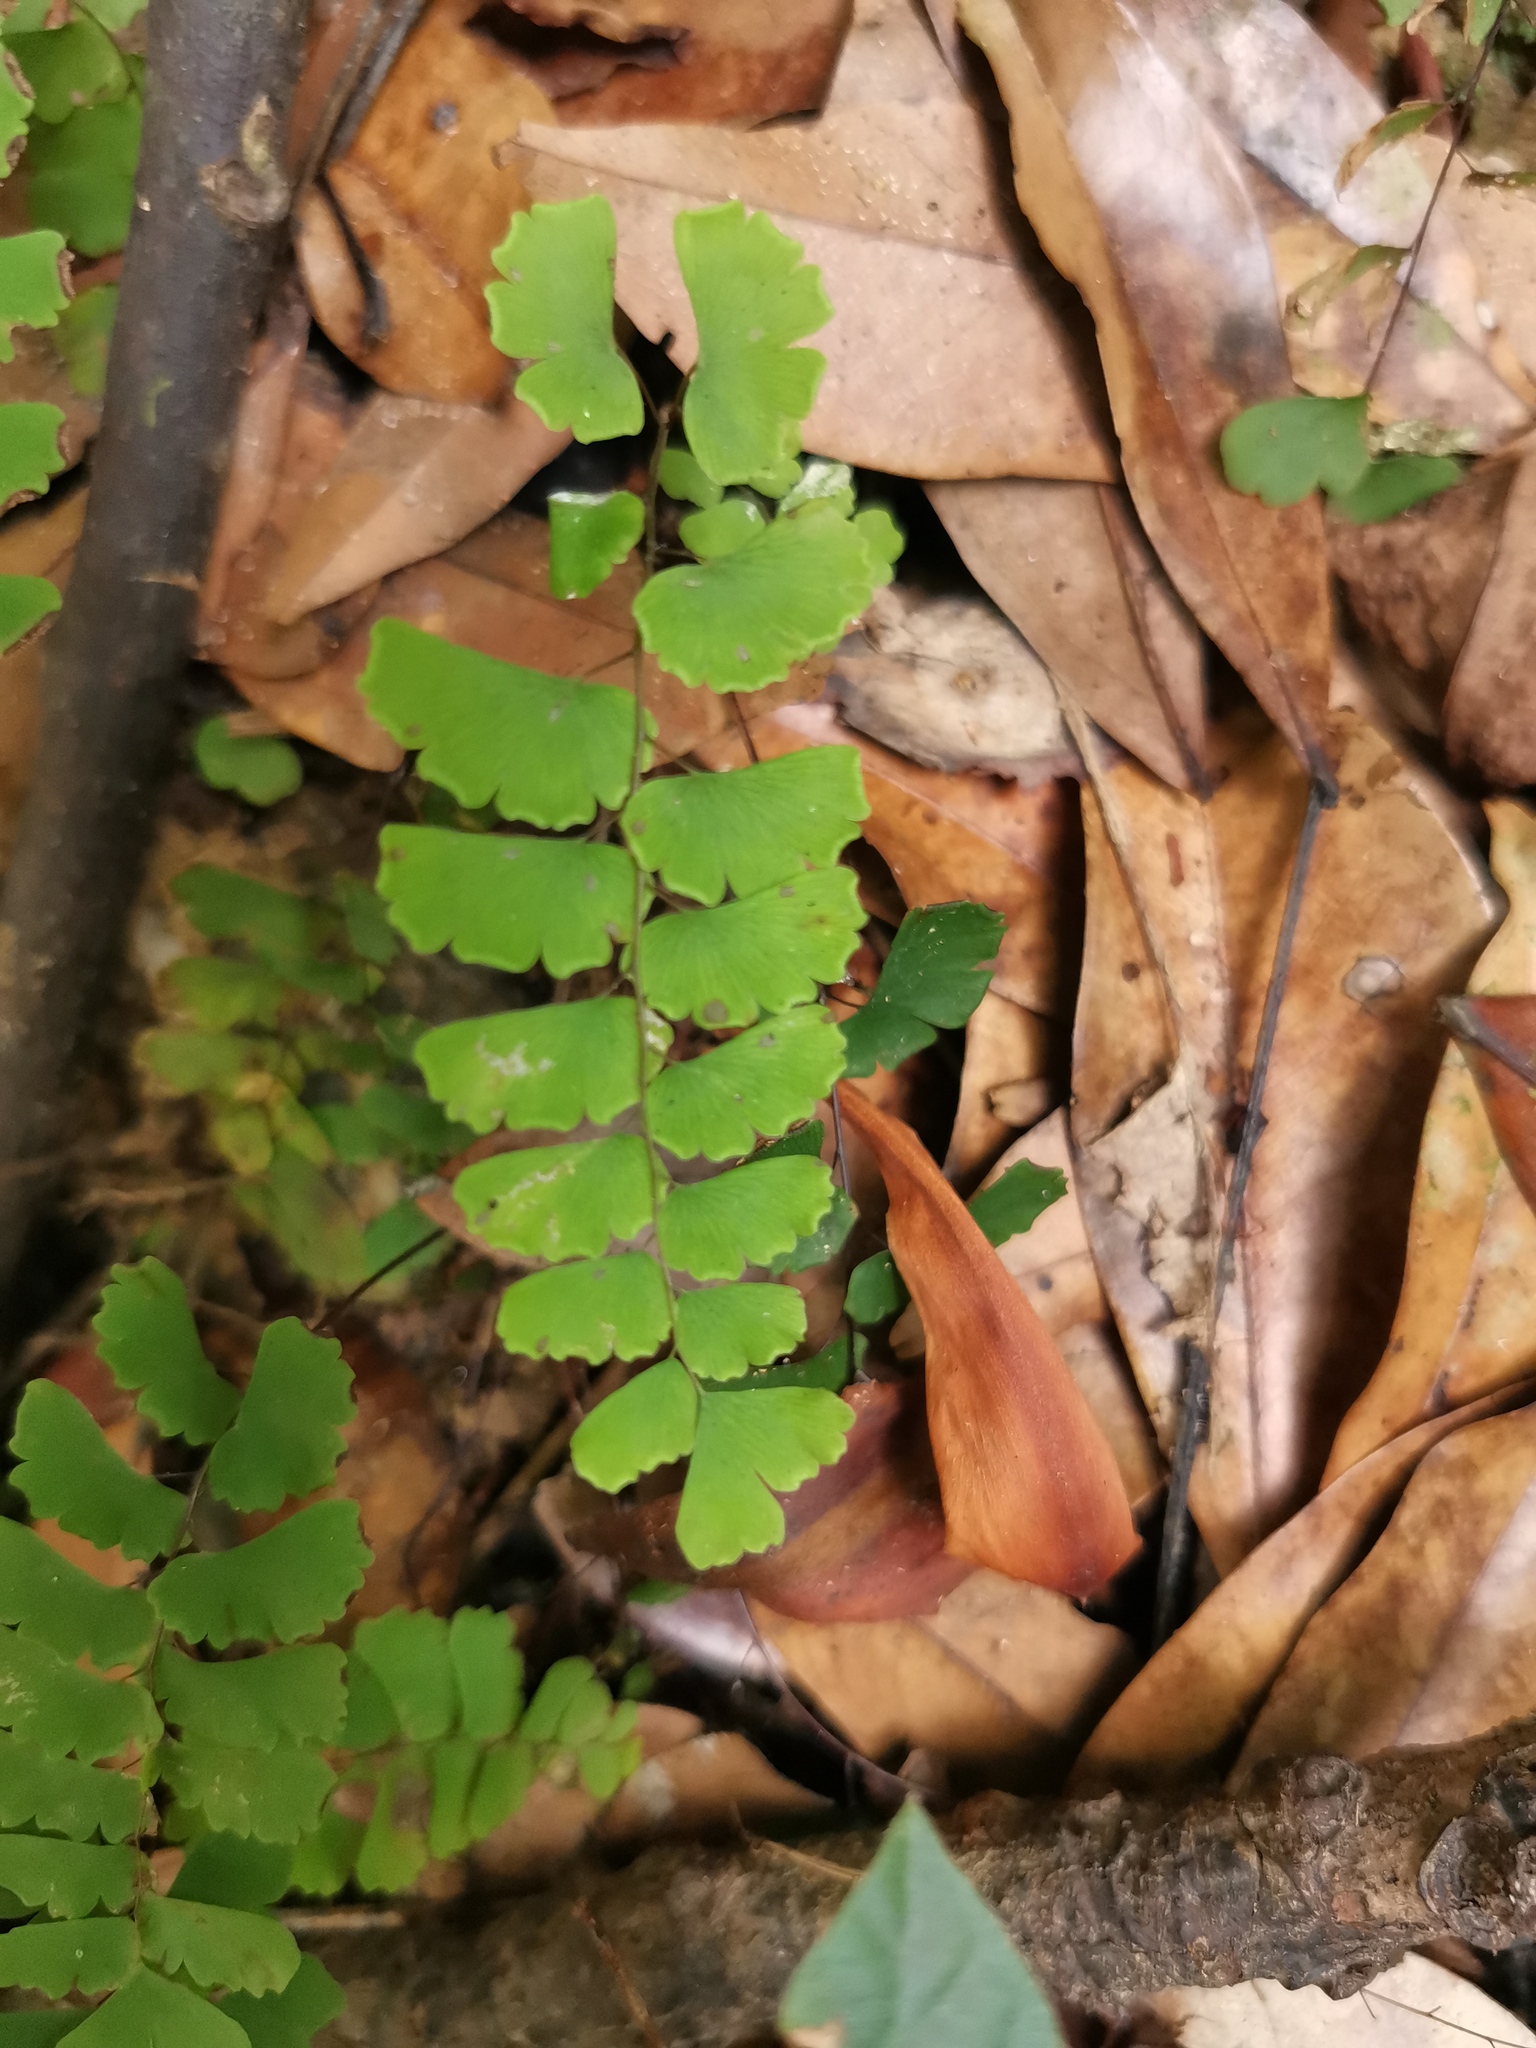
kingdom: Plantae
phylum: Tracheophyta
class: Polypodiopsida
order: Polypodiales
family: Pteridaceae
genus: Adiantum
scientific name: Adiantum philippense
